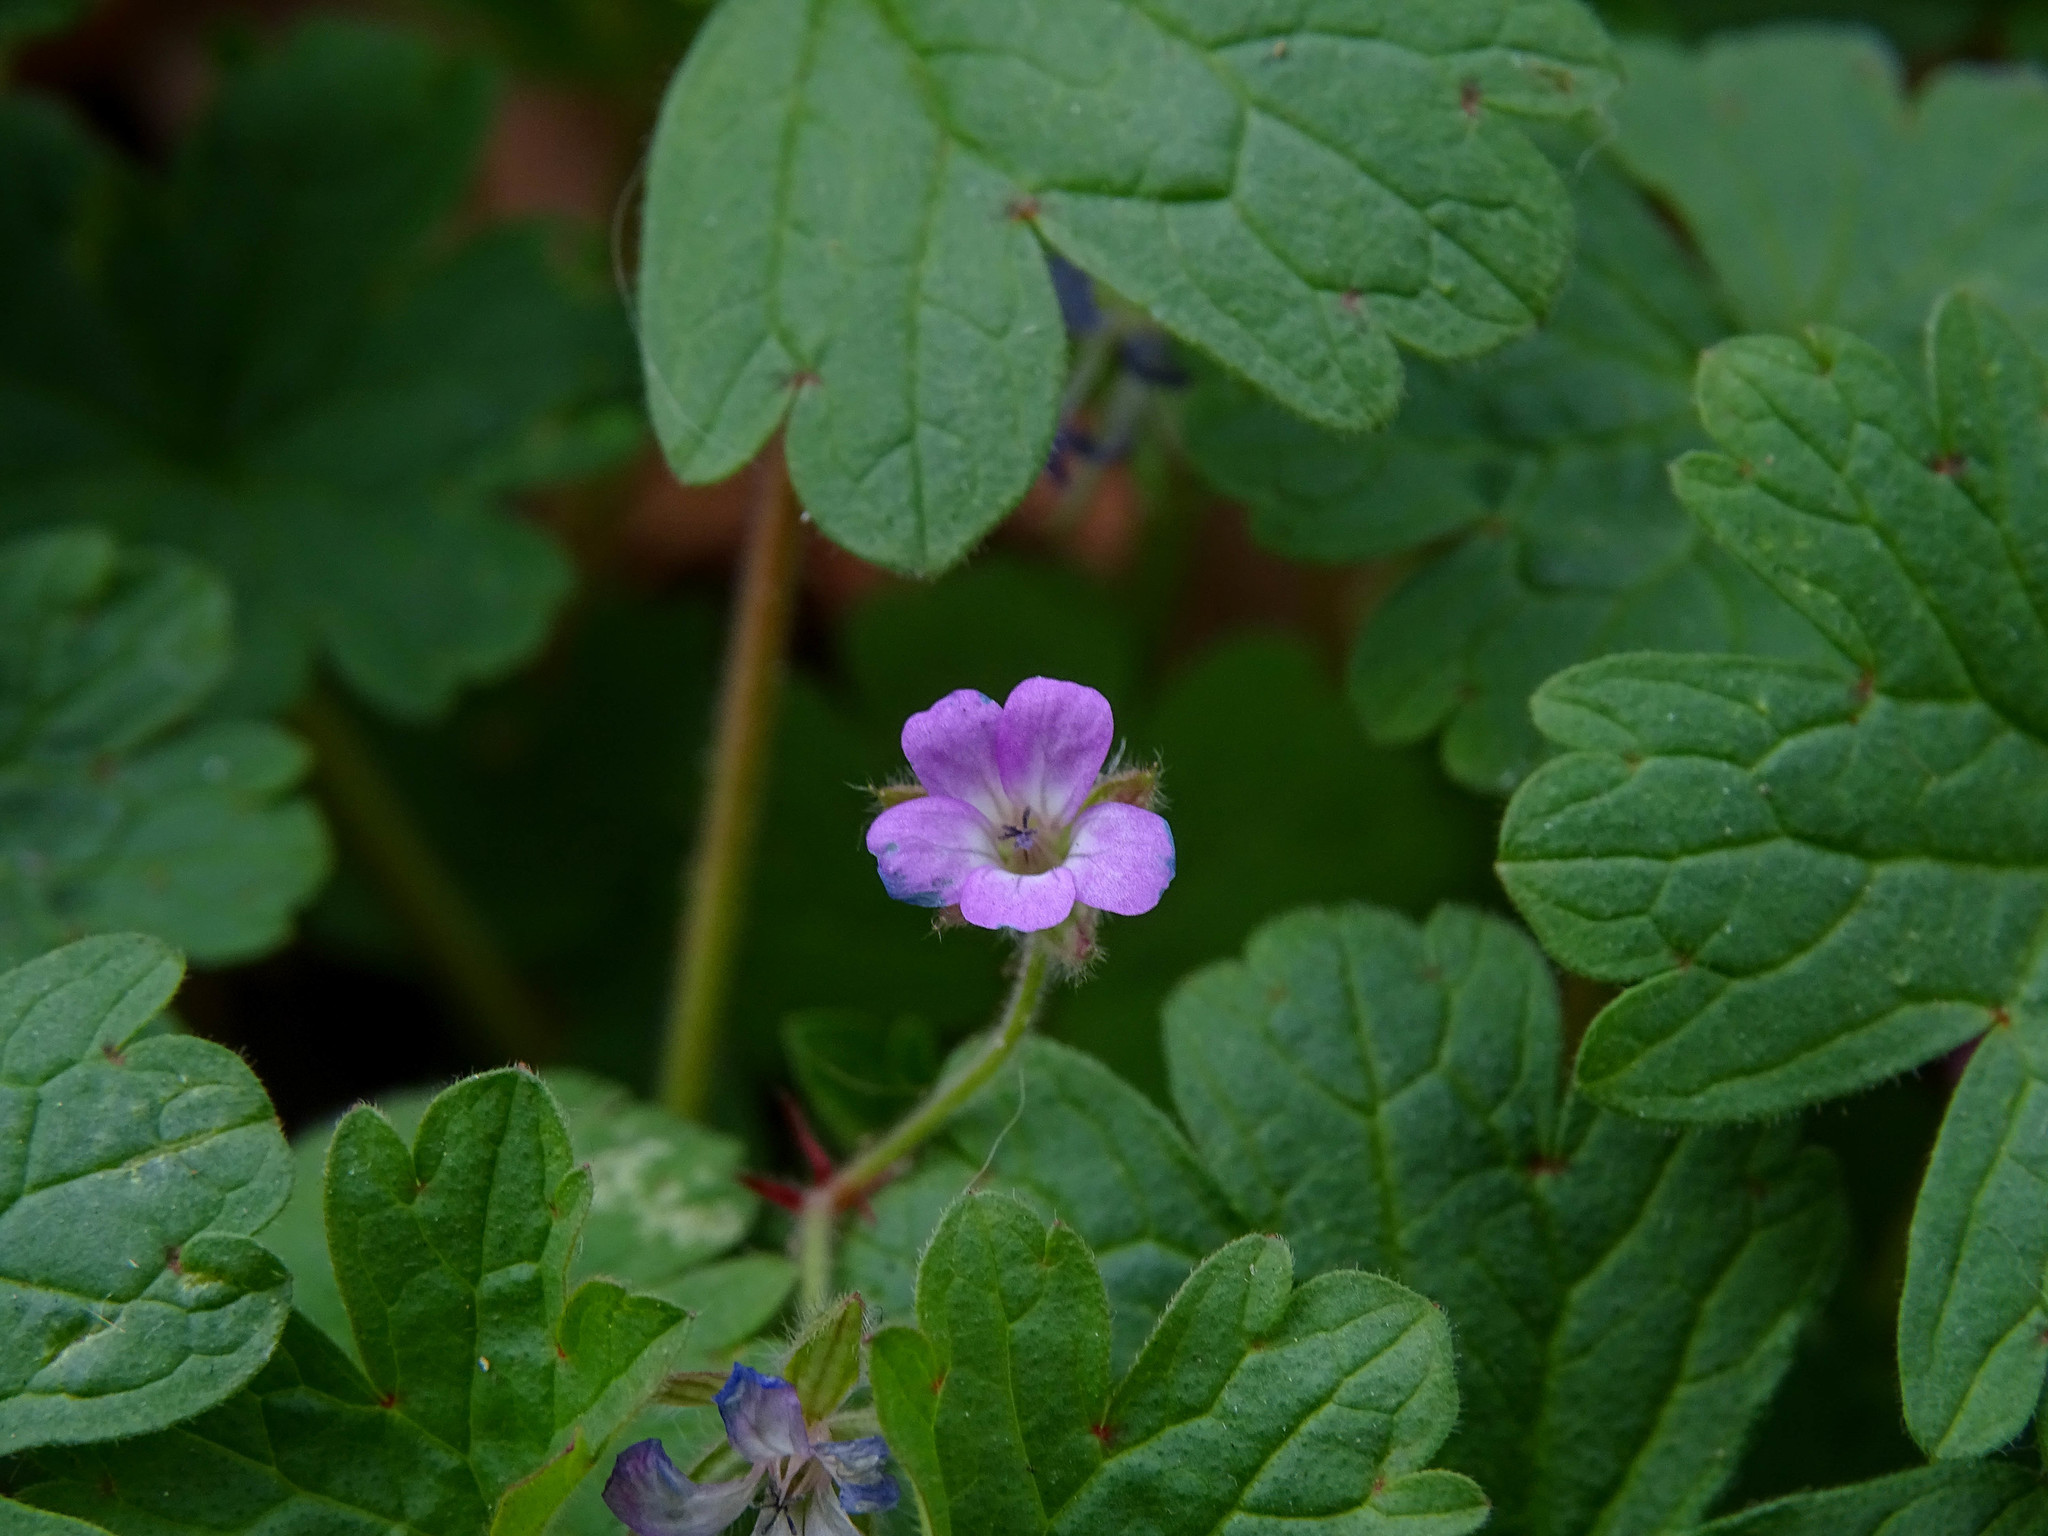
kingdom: Plantae
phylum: Tracheophyta
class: Magnoliopsida
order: Geraniales
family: Geraniaceae
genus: Geranium
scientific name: Geranium rotundifolium
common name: Round-leaved crane's-bill
